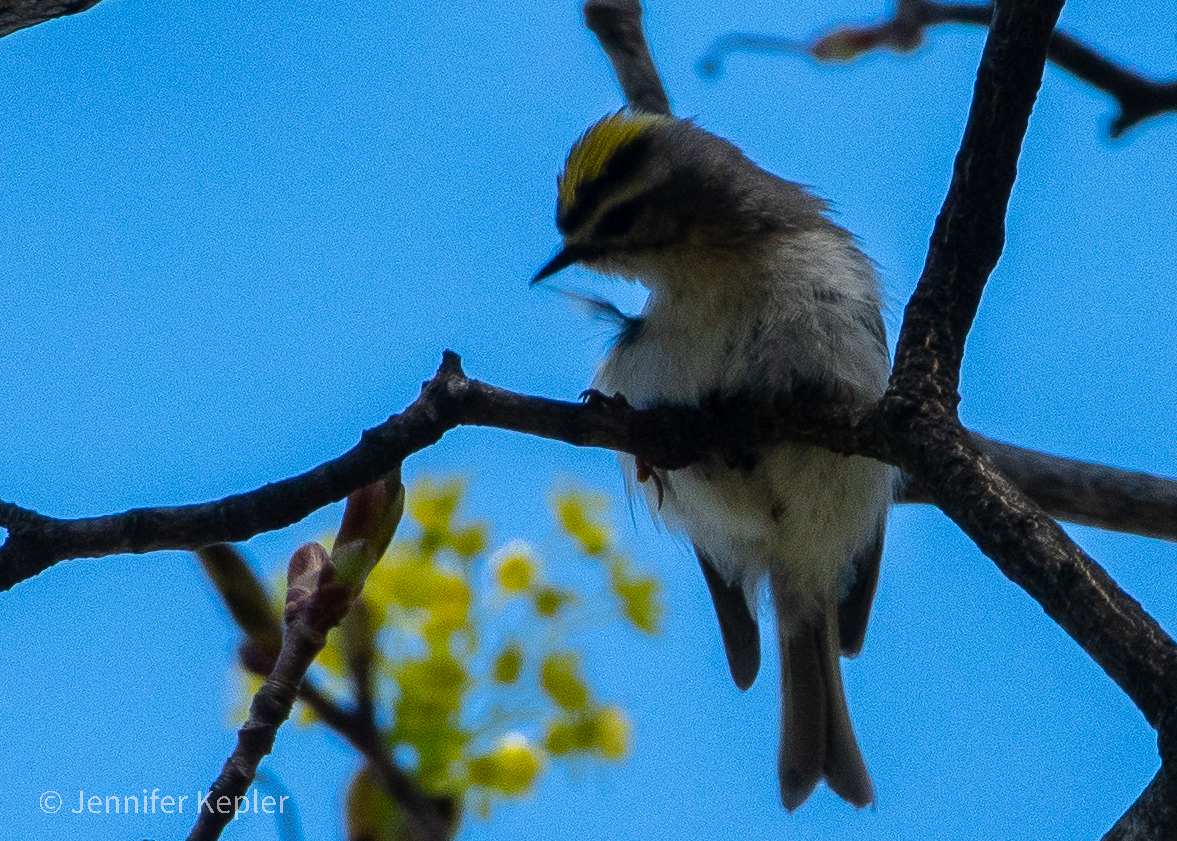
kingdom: Animalia
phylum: Chordata
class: Aves
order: Passeriformes
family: Regulidae
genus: Regulus
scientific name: Regulus satrapa
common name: Golden-crowned kinglet
